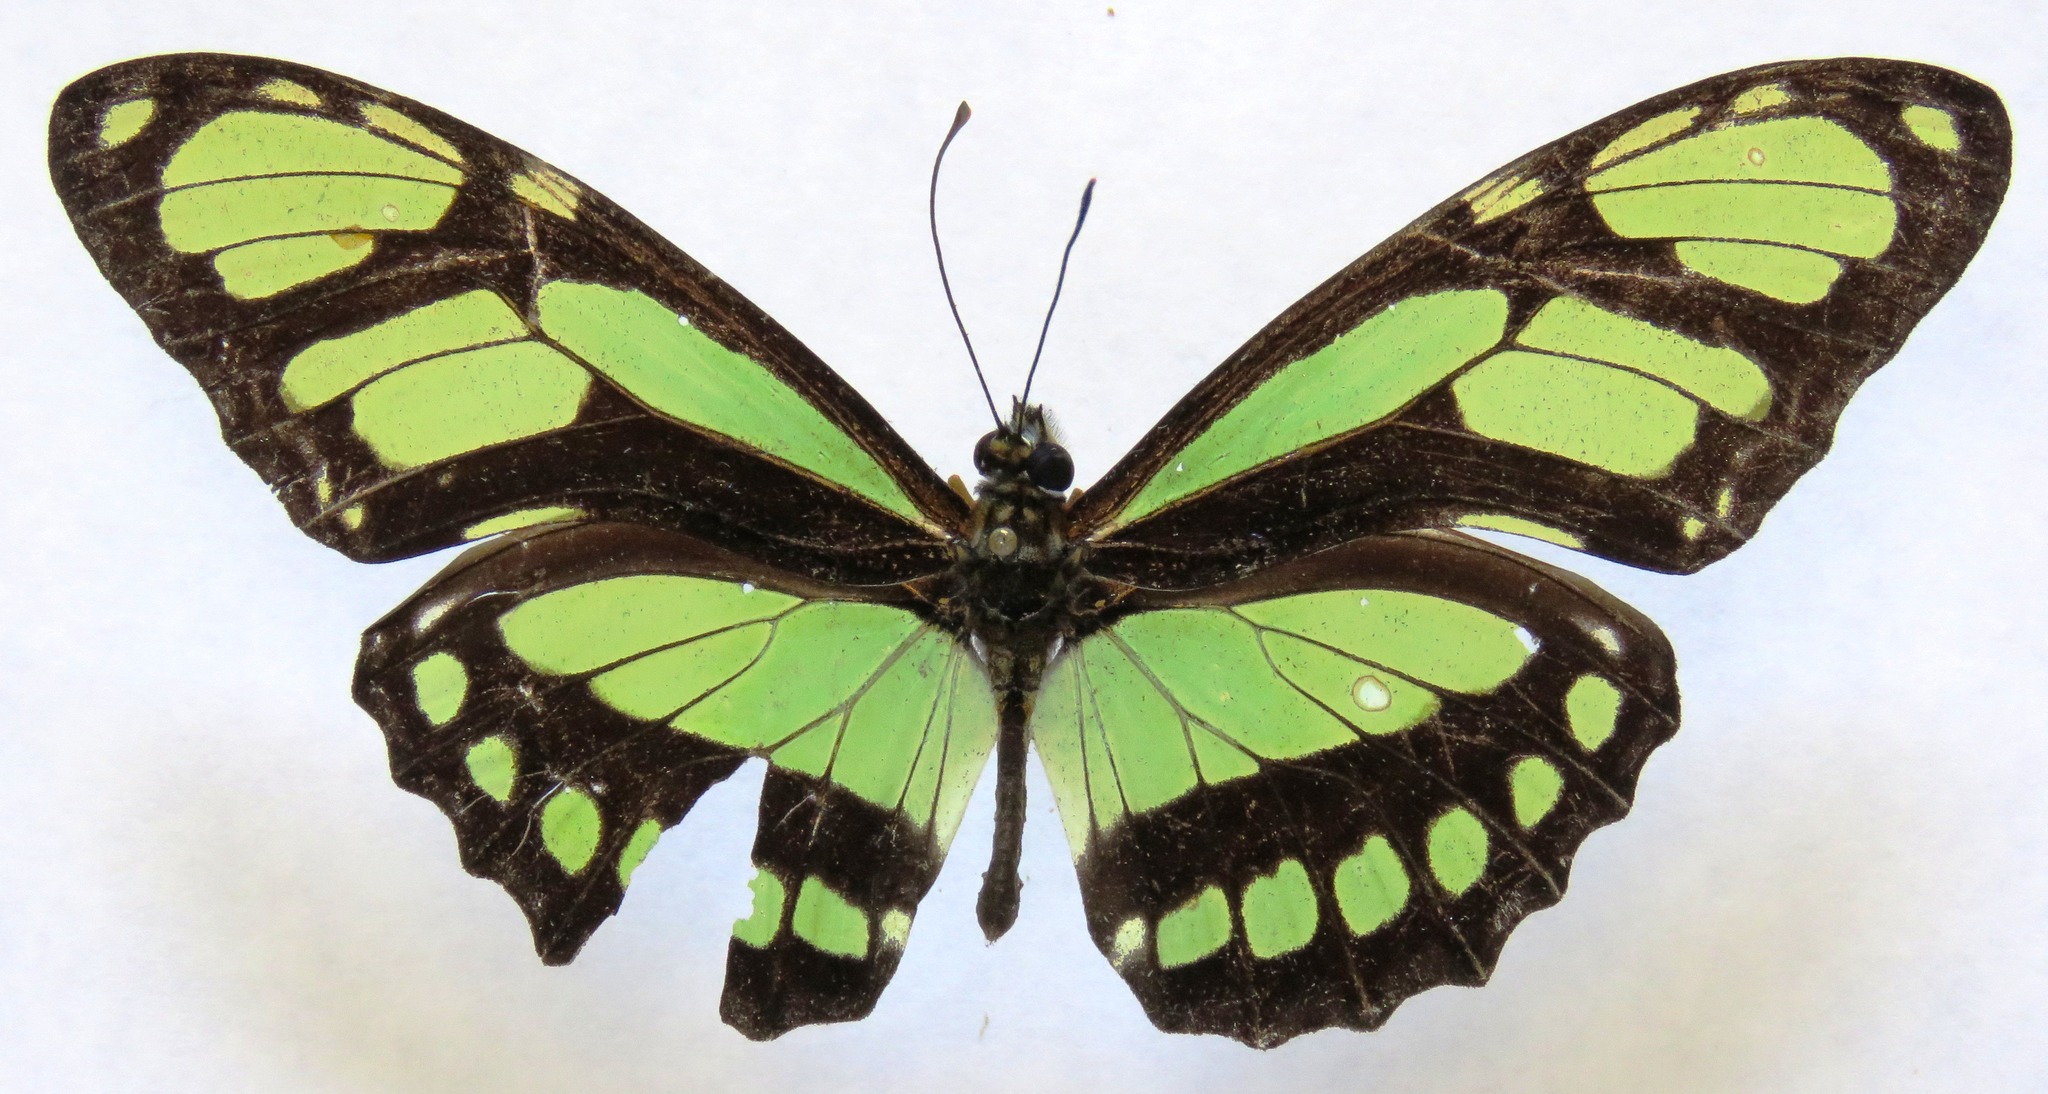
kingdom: Animalia
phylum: Arthropoda
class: Insecta
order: Lepidoptera
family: Nymphalidae
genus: Philaethria
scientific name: Philaethria dido
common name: Scarce bamboo page
